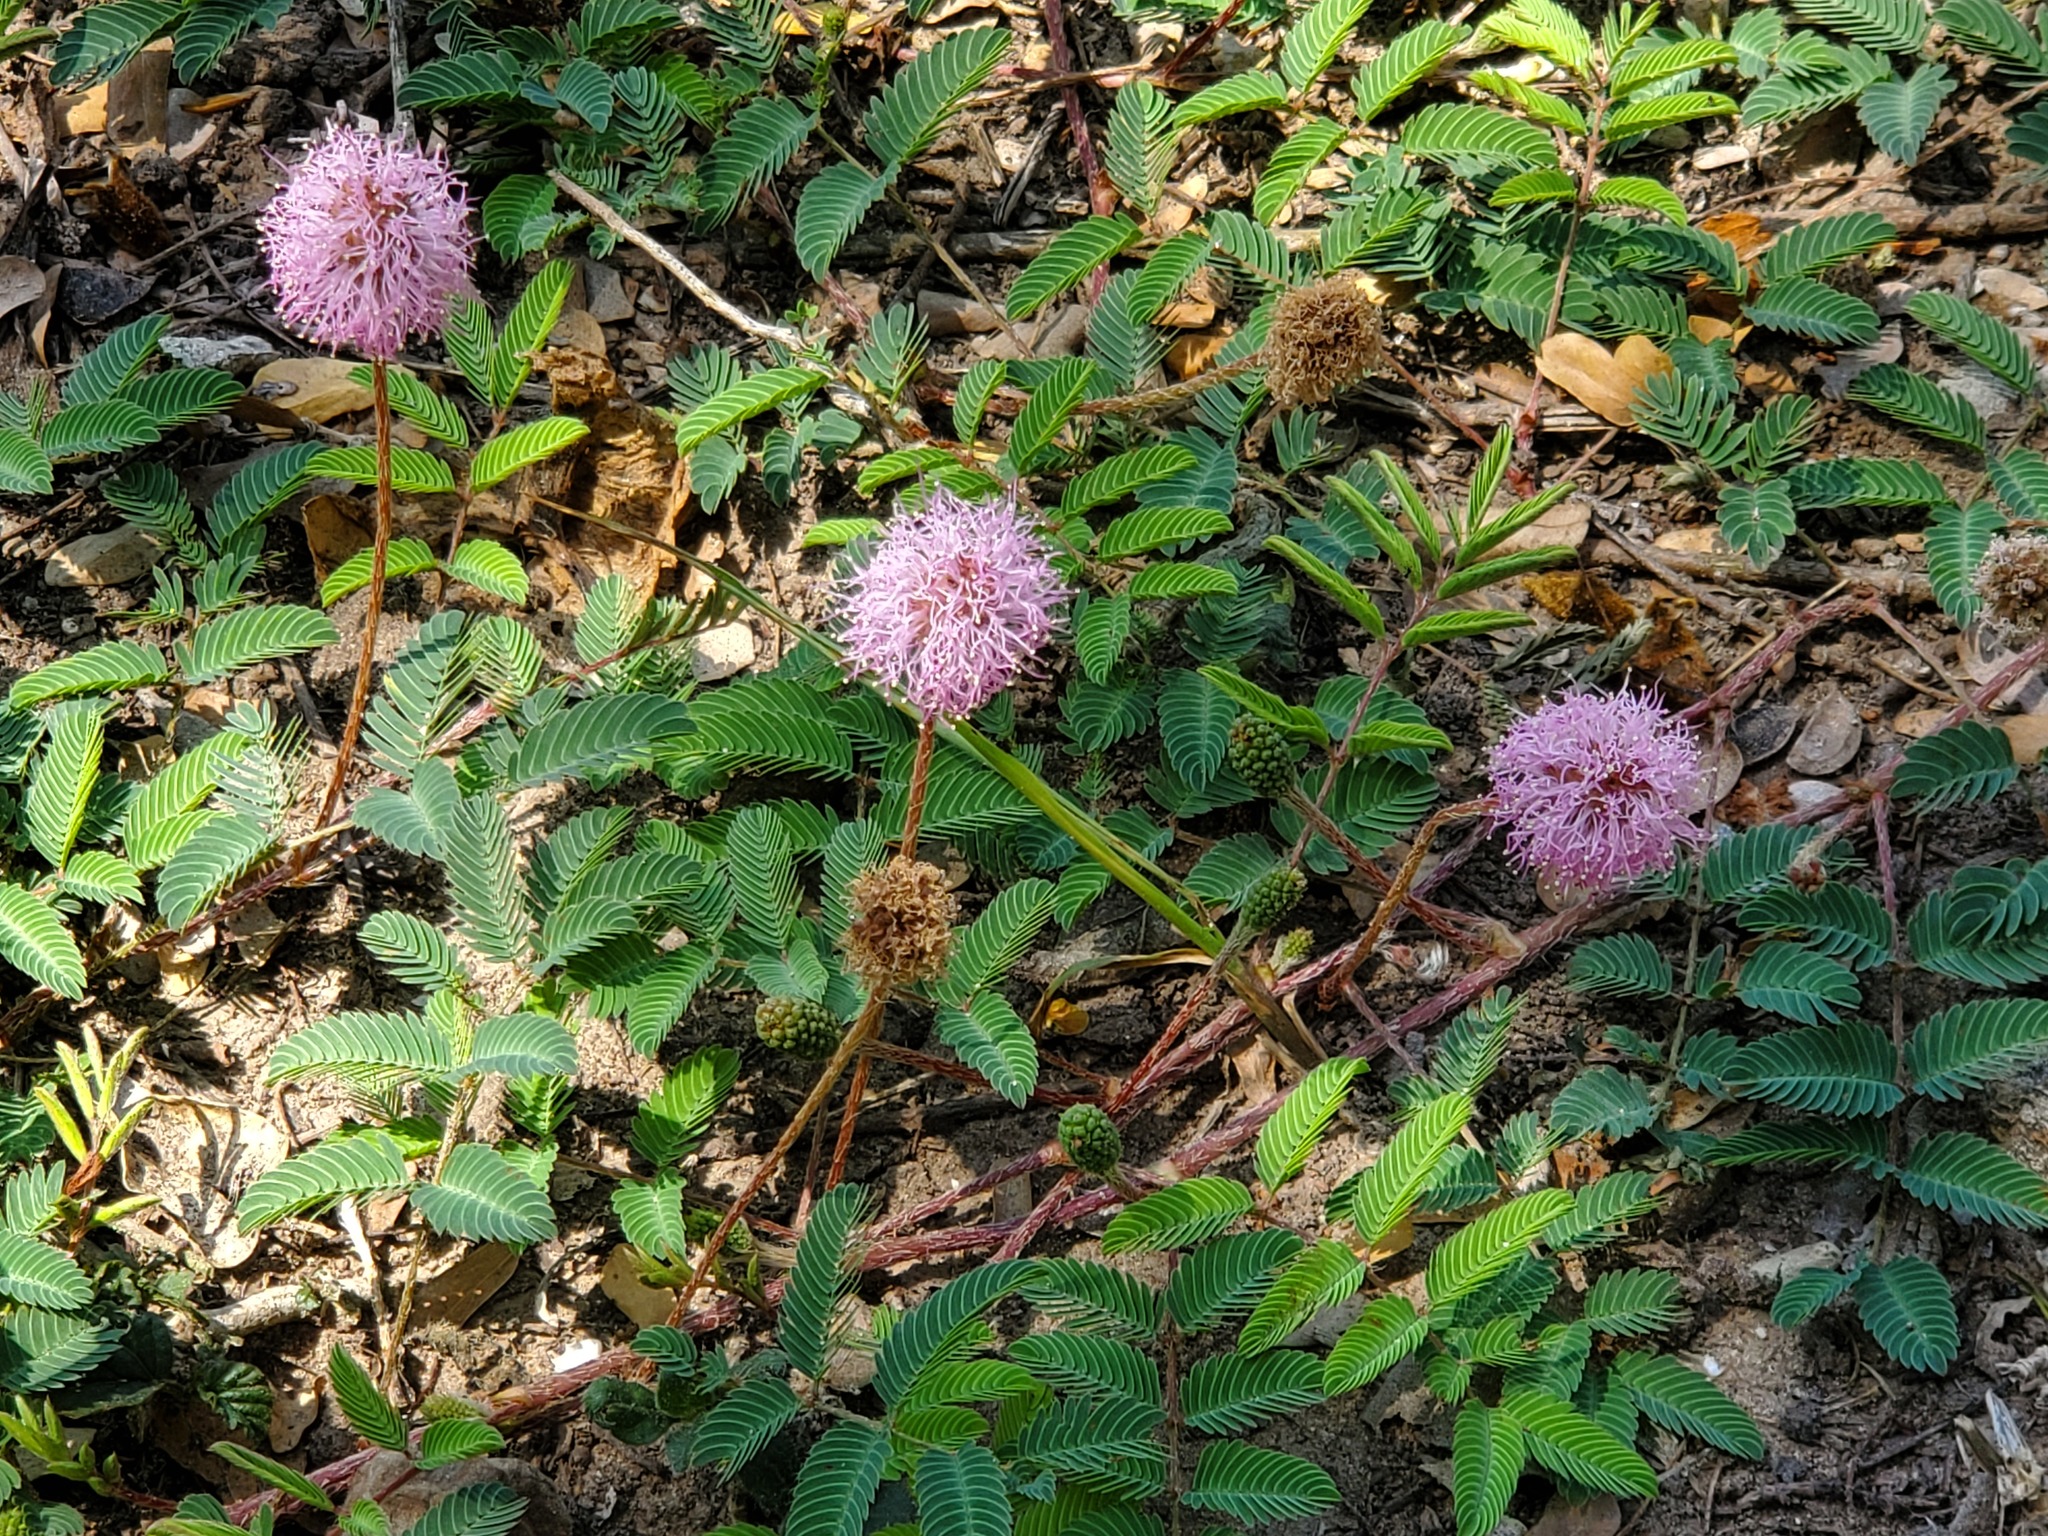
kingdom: Plantae
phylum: Tracheophyta
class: Magnoliopsida
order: Fabales
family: Fabaceae
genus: Mimosa
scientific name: Mimosa strigillosa
